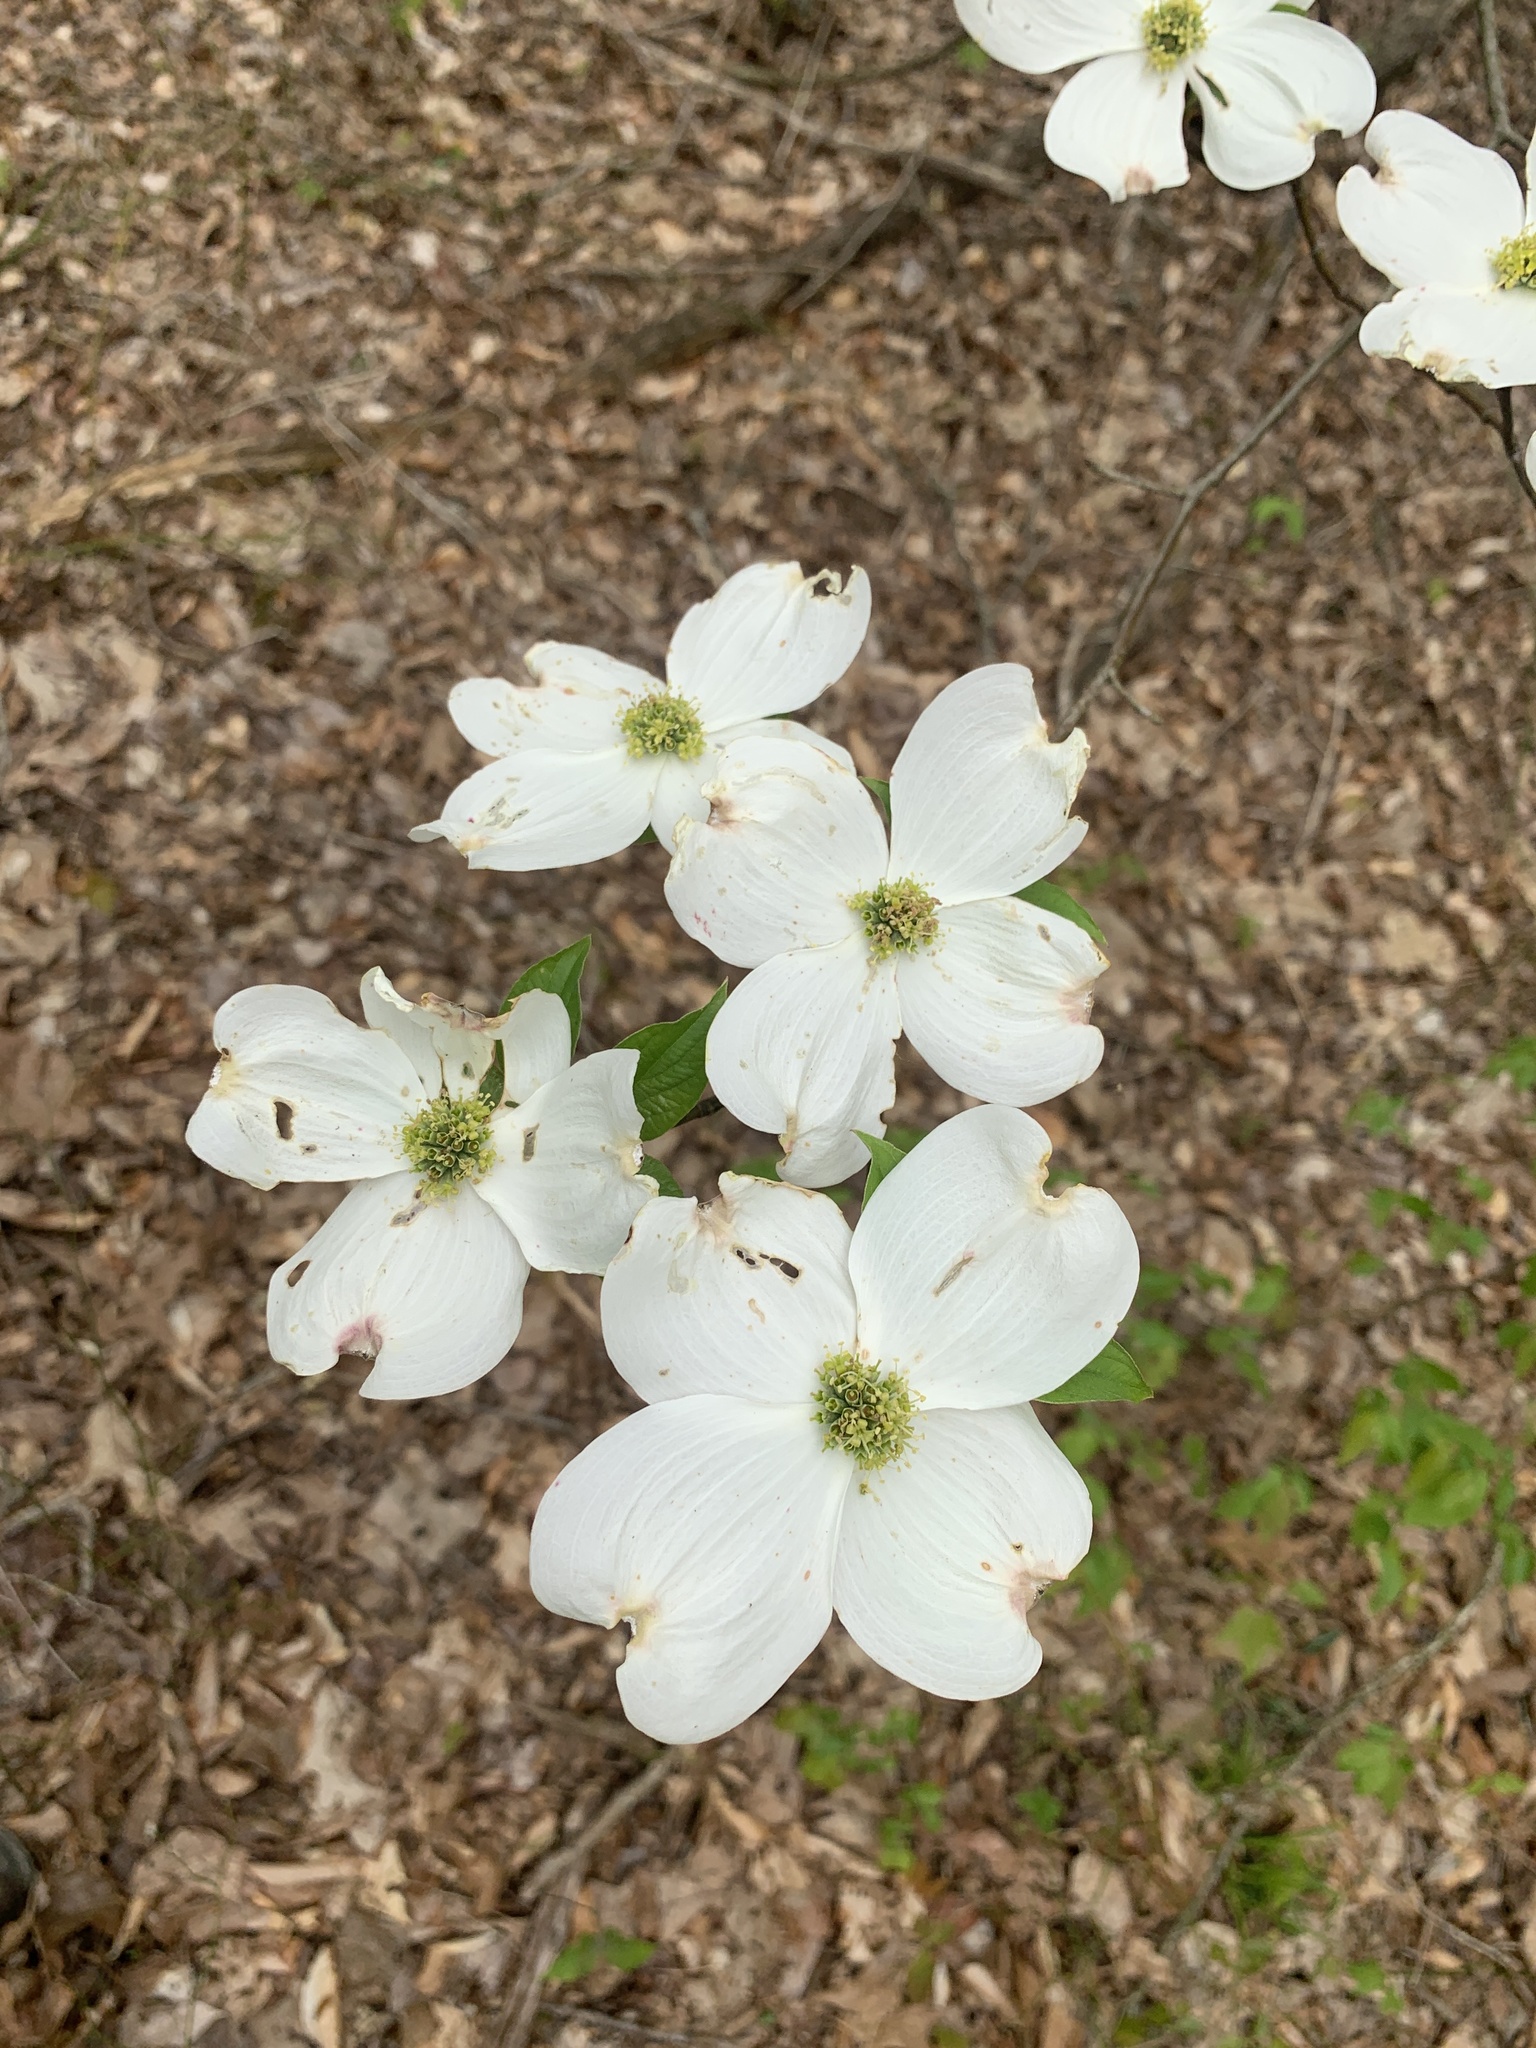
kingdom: Plantae
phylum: Tracheophyta
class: Magnoliopsida
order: Cornales
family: Cornaceae
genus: Cornus
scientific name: Cornus florida
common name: Flowering dogwood
